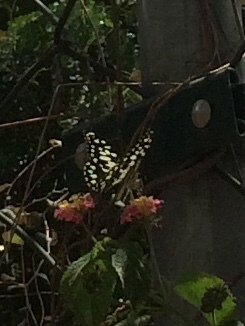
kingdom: Animalia
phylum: Arthropoda
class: Insecta
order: Lepidoptera
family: Papilionidae
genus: Papilio
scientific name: Papilio demoleus
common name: Lime butterfly
